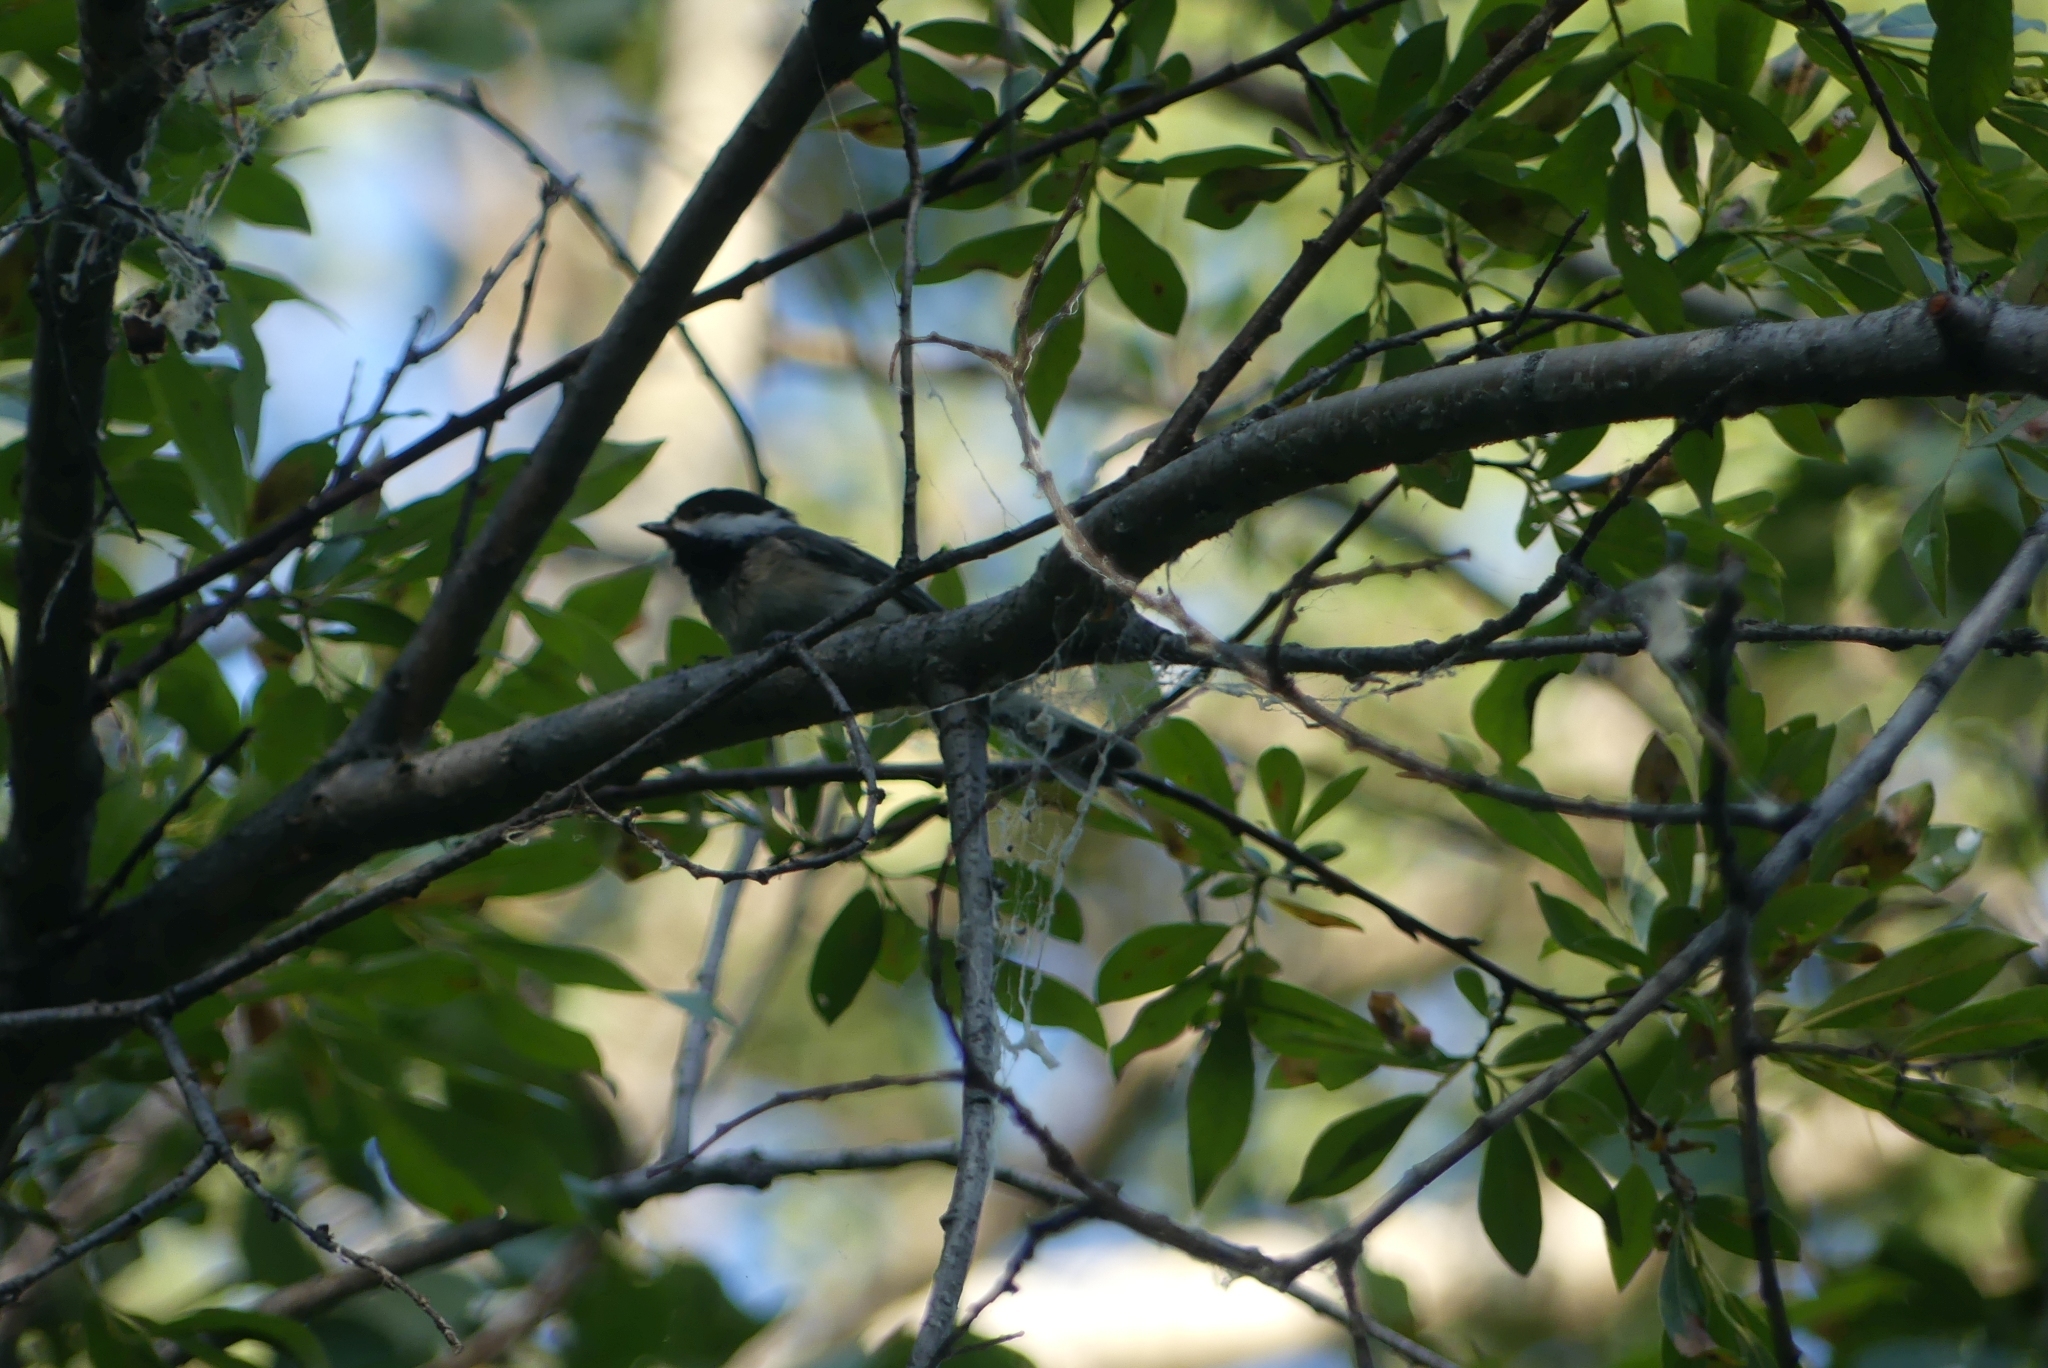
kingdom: Animalia
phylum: Chordata
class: Aves
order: Passeriformes
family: Paridae
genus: Poecile
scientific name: Poecile atricapillus
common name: Black-capped chickadee
